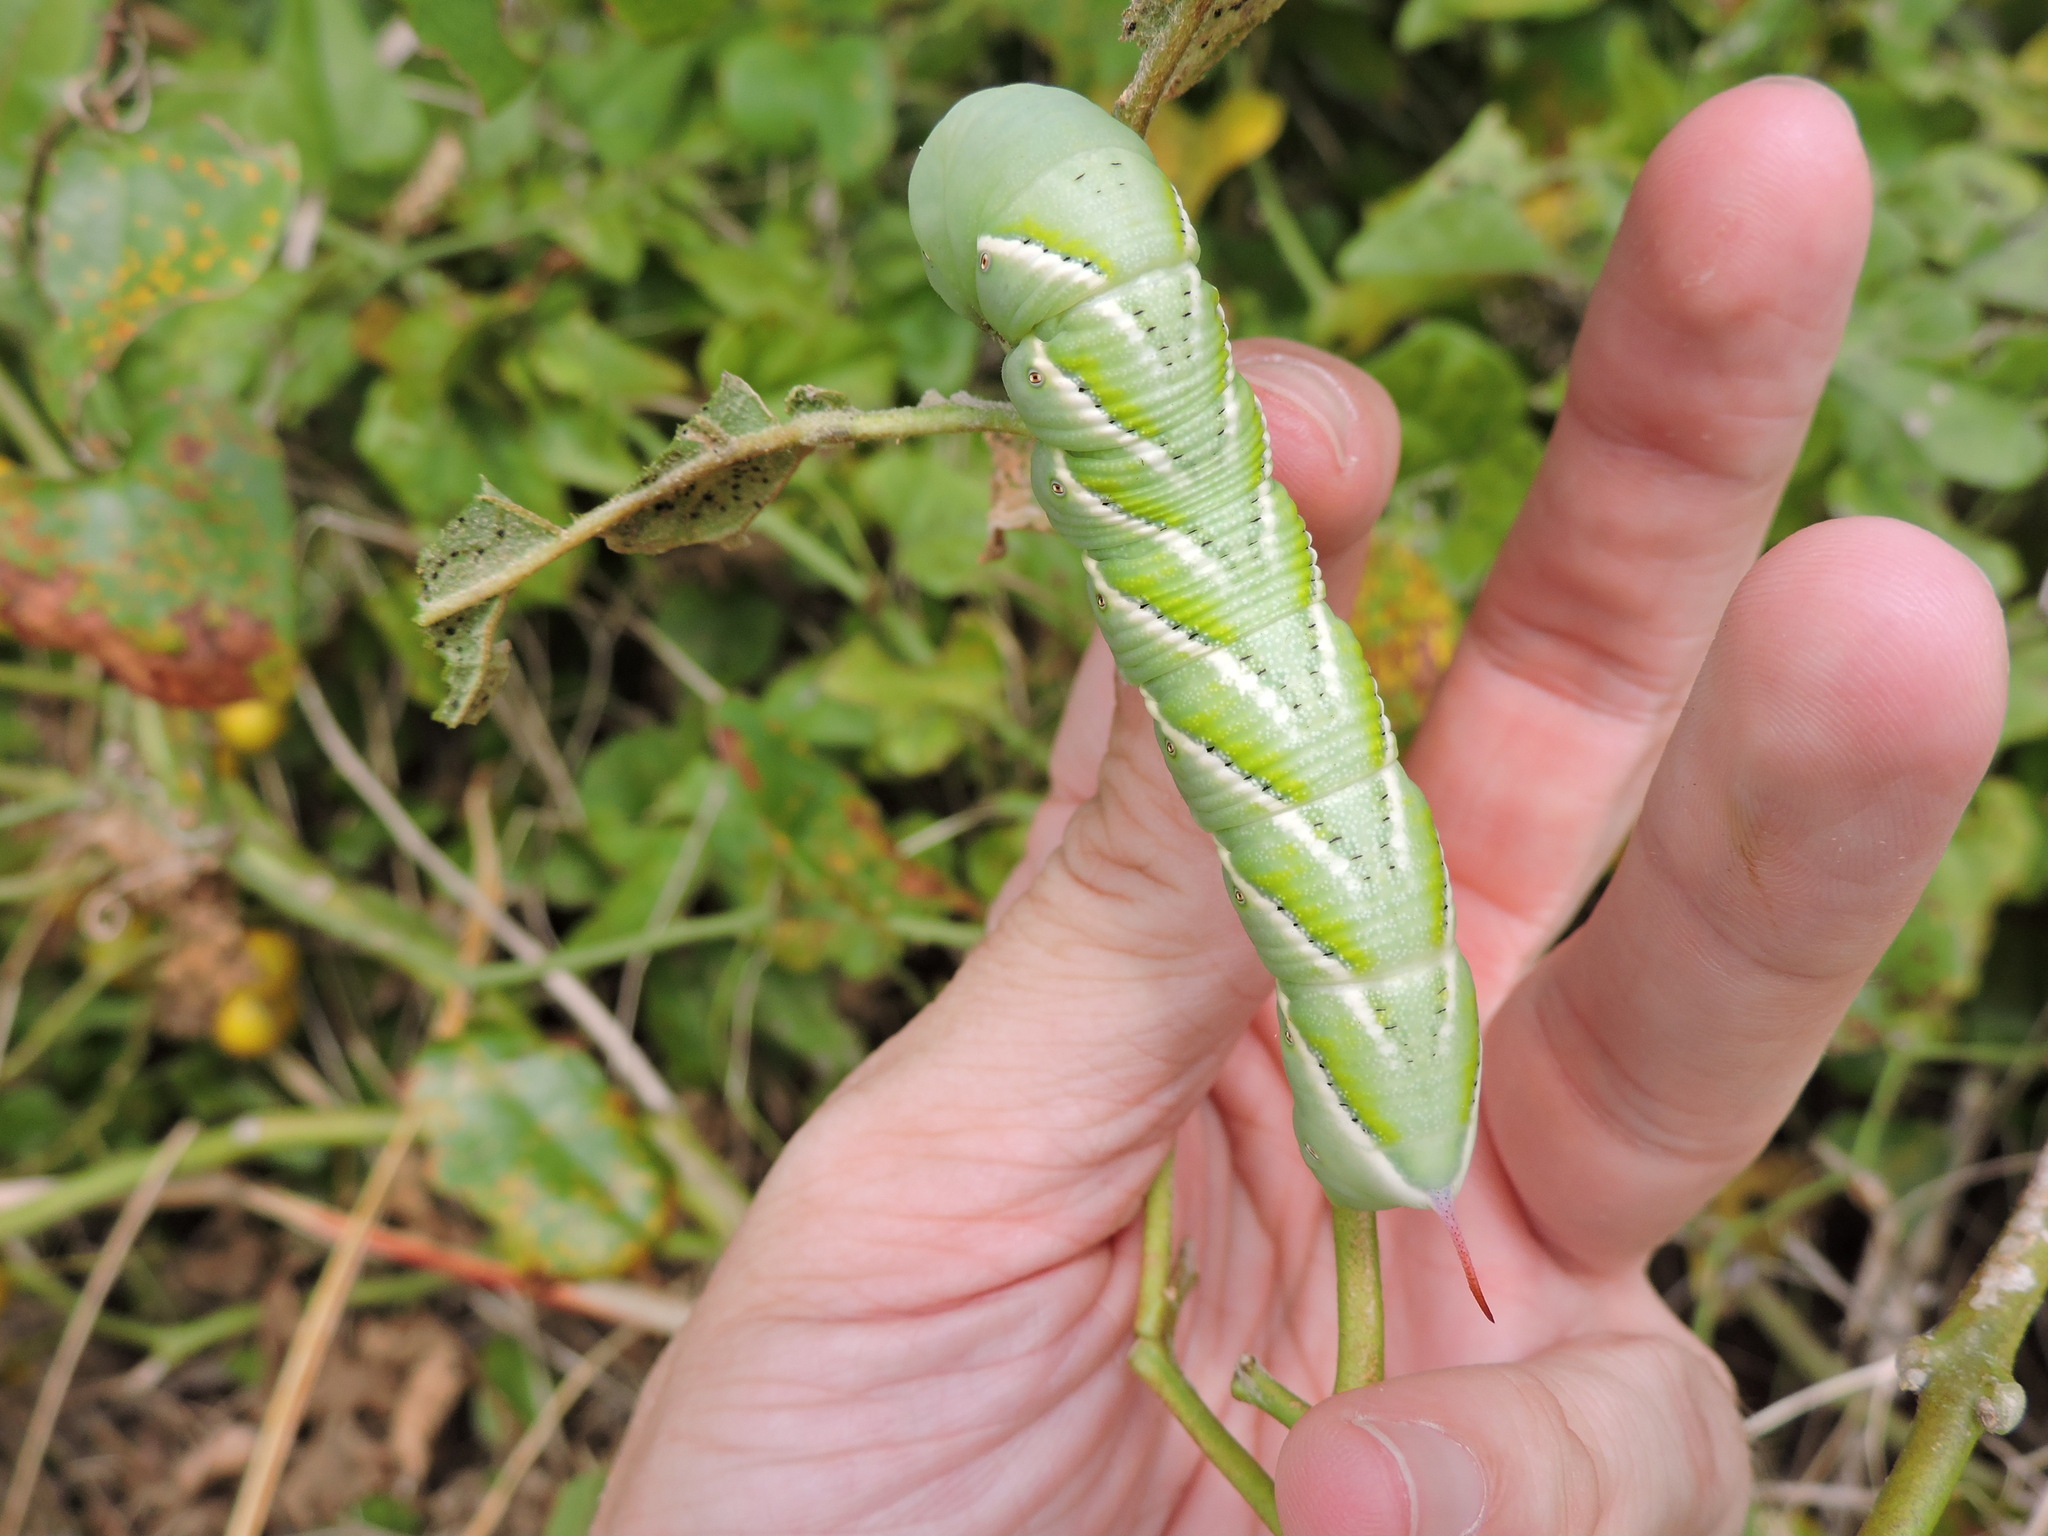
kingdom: Animalia
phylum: Arthropoda
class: Insecta
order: Lepidoptera
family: Sphingidae
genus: Manduca
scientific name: Manduca sexta
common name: Carolina sphinx
